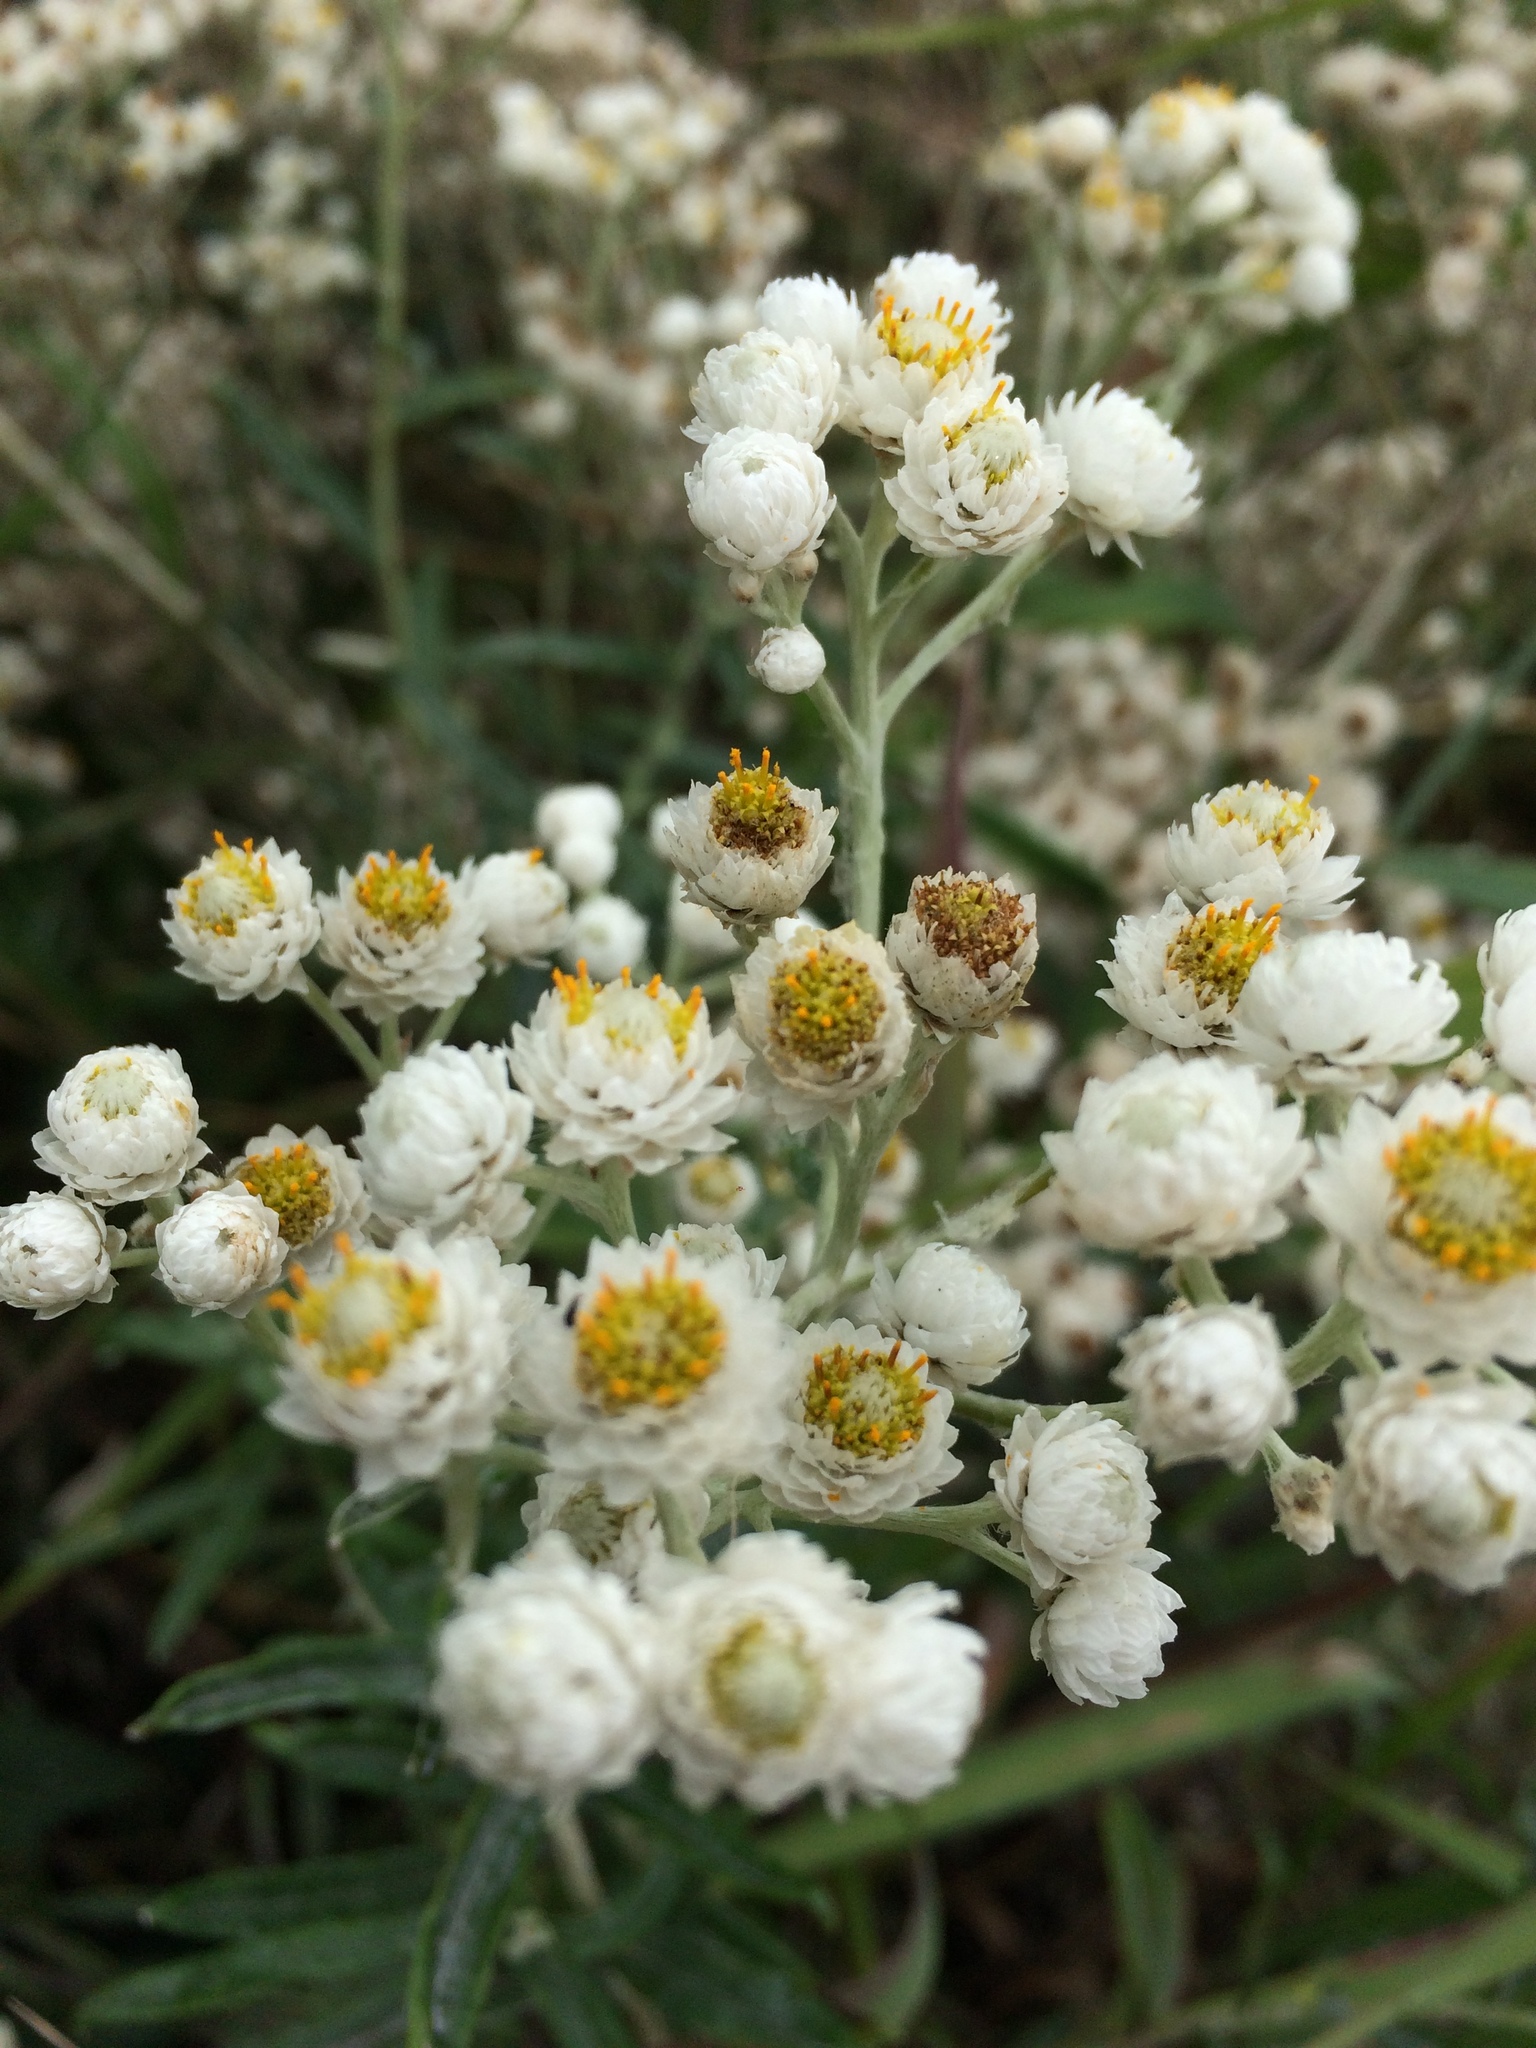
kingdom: Plantae
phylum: Tracheophyta
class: Magnoliopsida
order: Asterales
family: Asteraceae
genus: Anaphalis
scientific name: Anaphalis margaritacea
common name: Pearly everlasting
